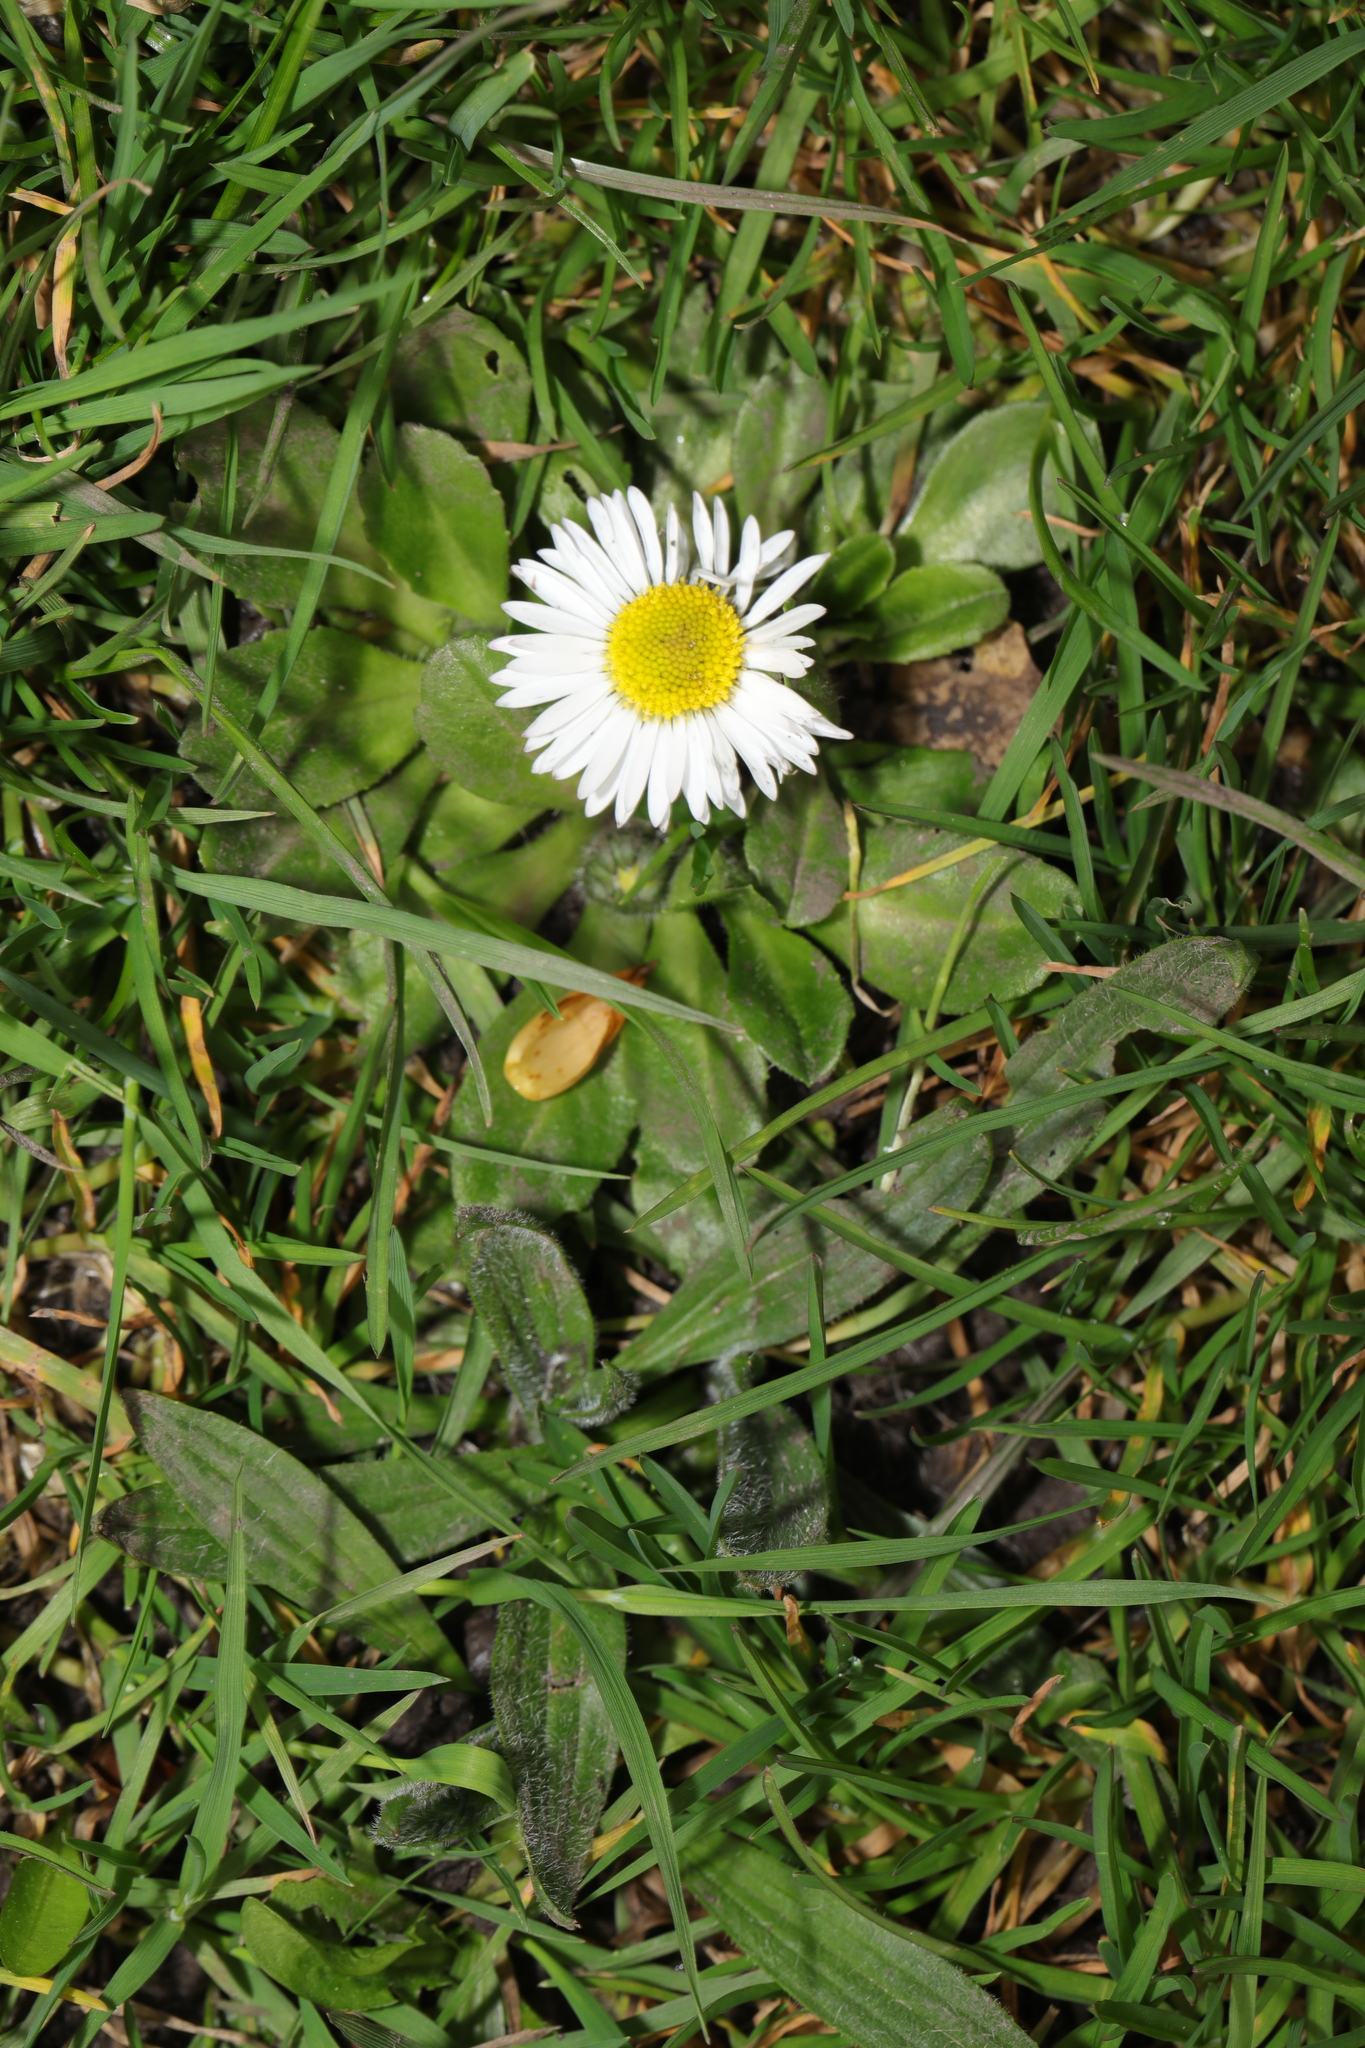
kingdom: Plantae
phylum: Tracheophyta
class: Magnoliopsida
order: Asterales
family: Asteraceae
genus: Bellis
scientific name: Bellis perennis
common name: Lawndaisy
